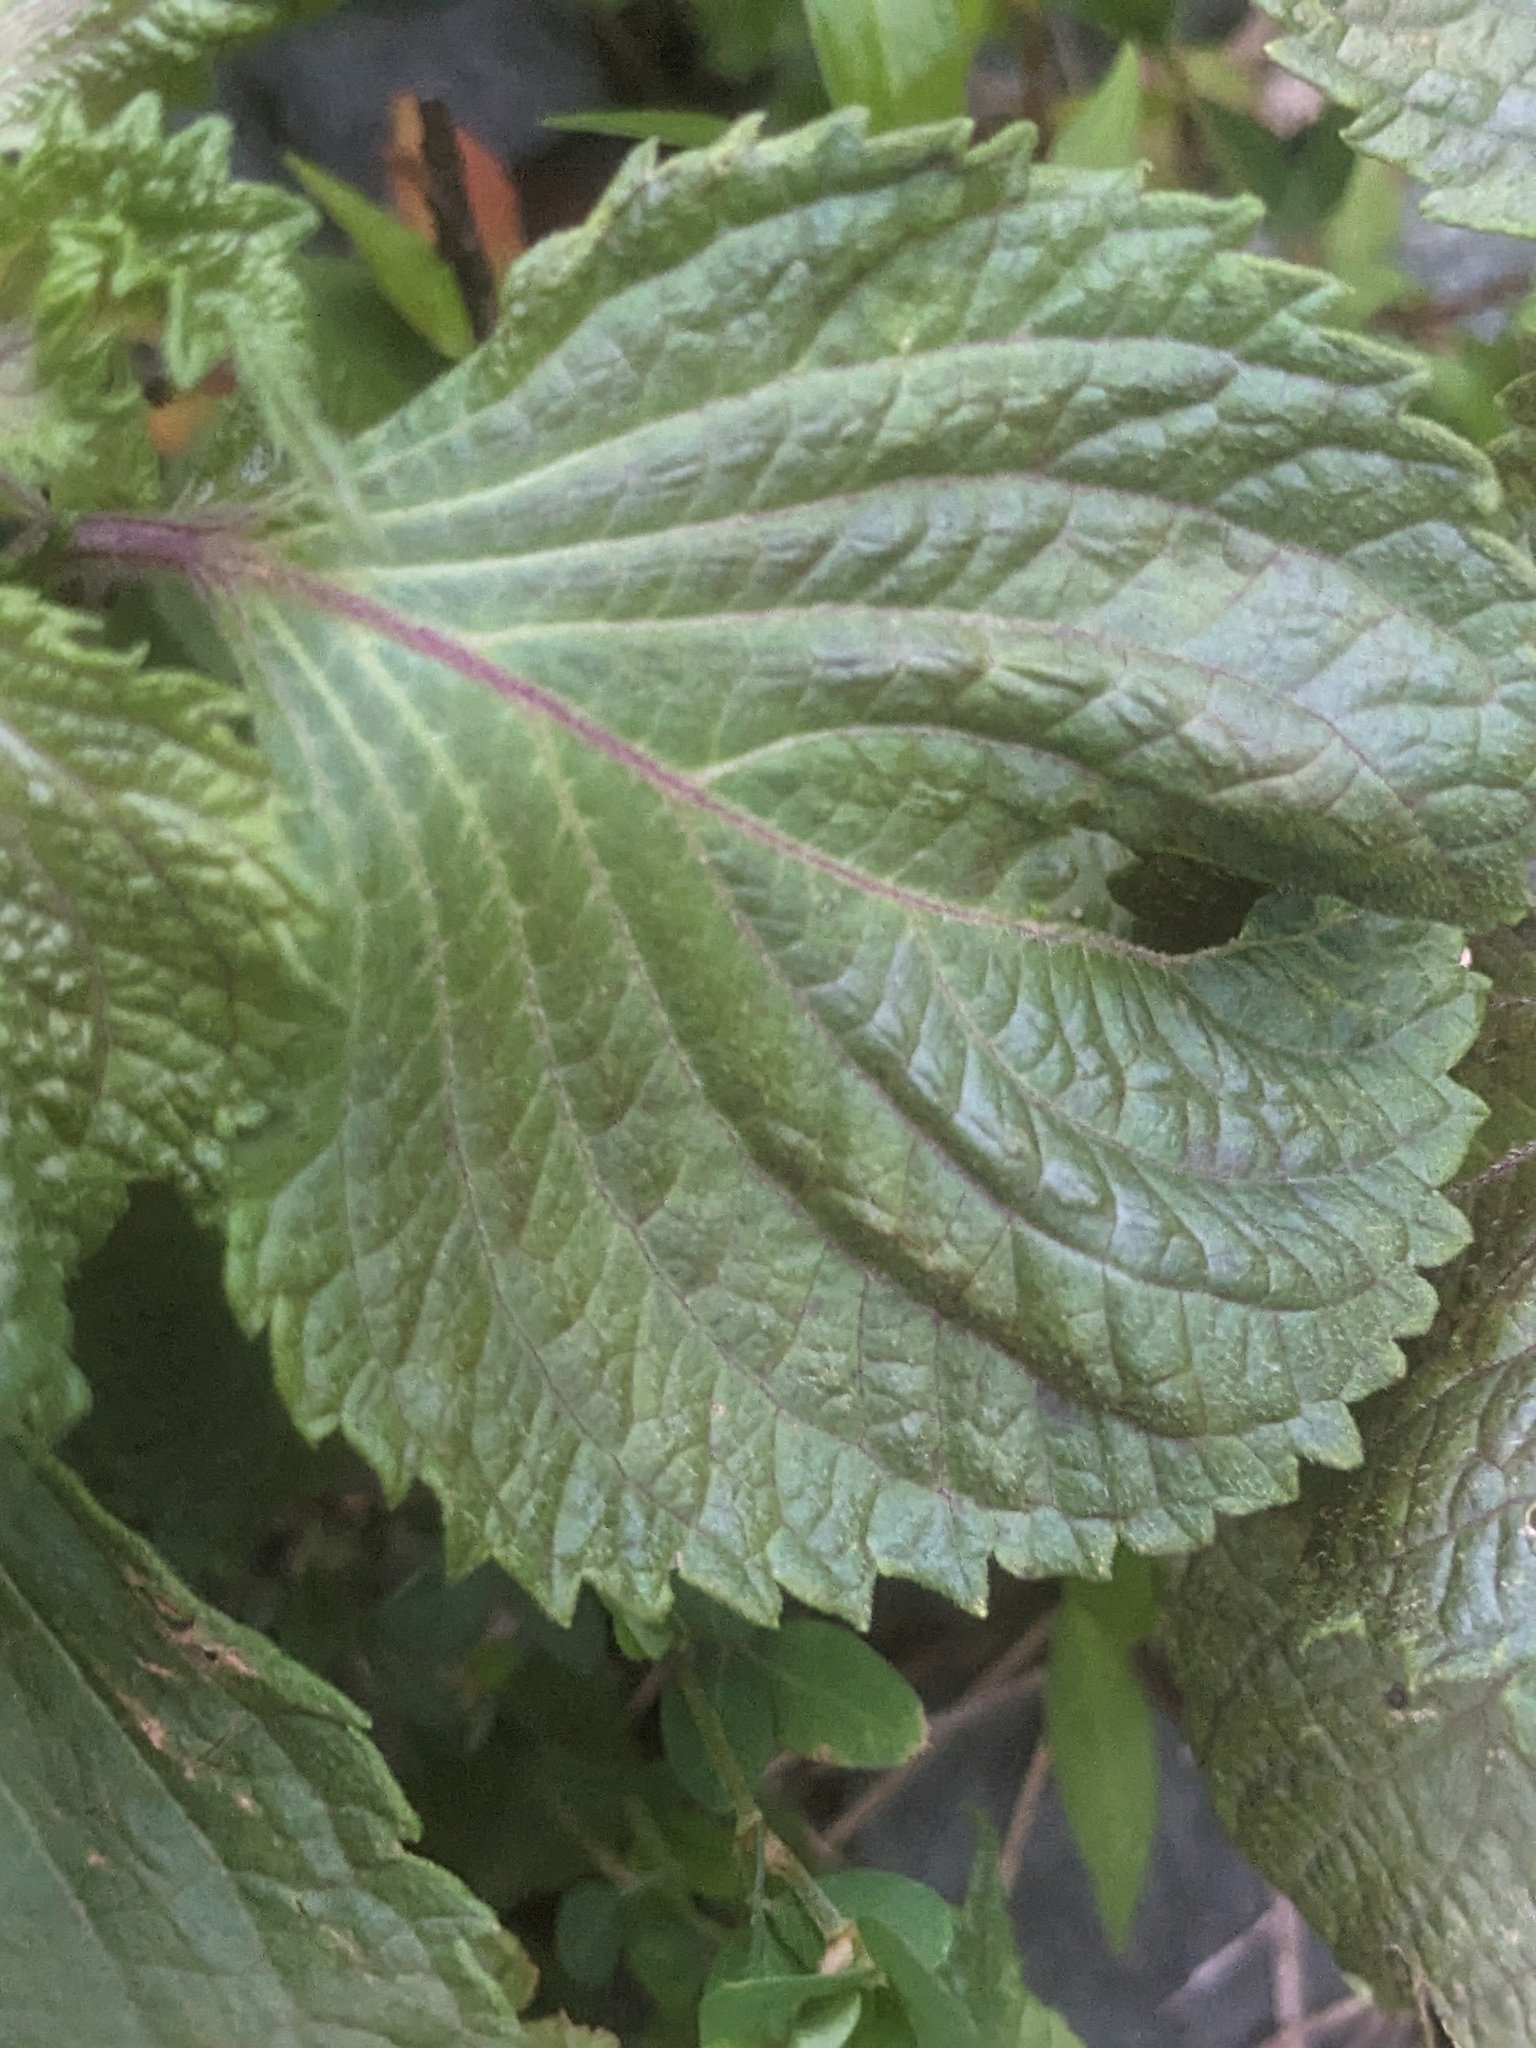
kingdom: Plantae
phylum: Tracheophyta
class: Magnoliopsida
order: Lamiales
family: Lamiaceae
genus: Perilla
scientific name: Perilla frutescens
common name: Perilla
